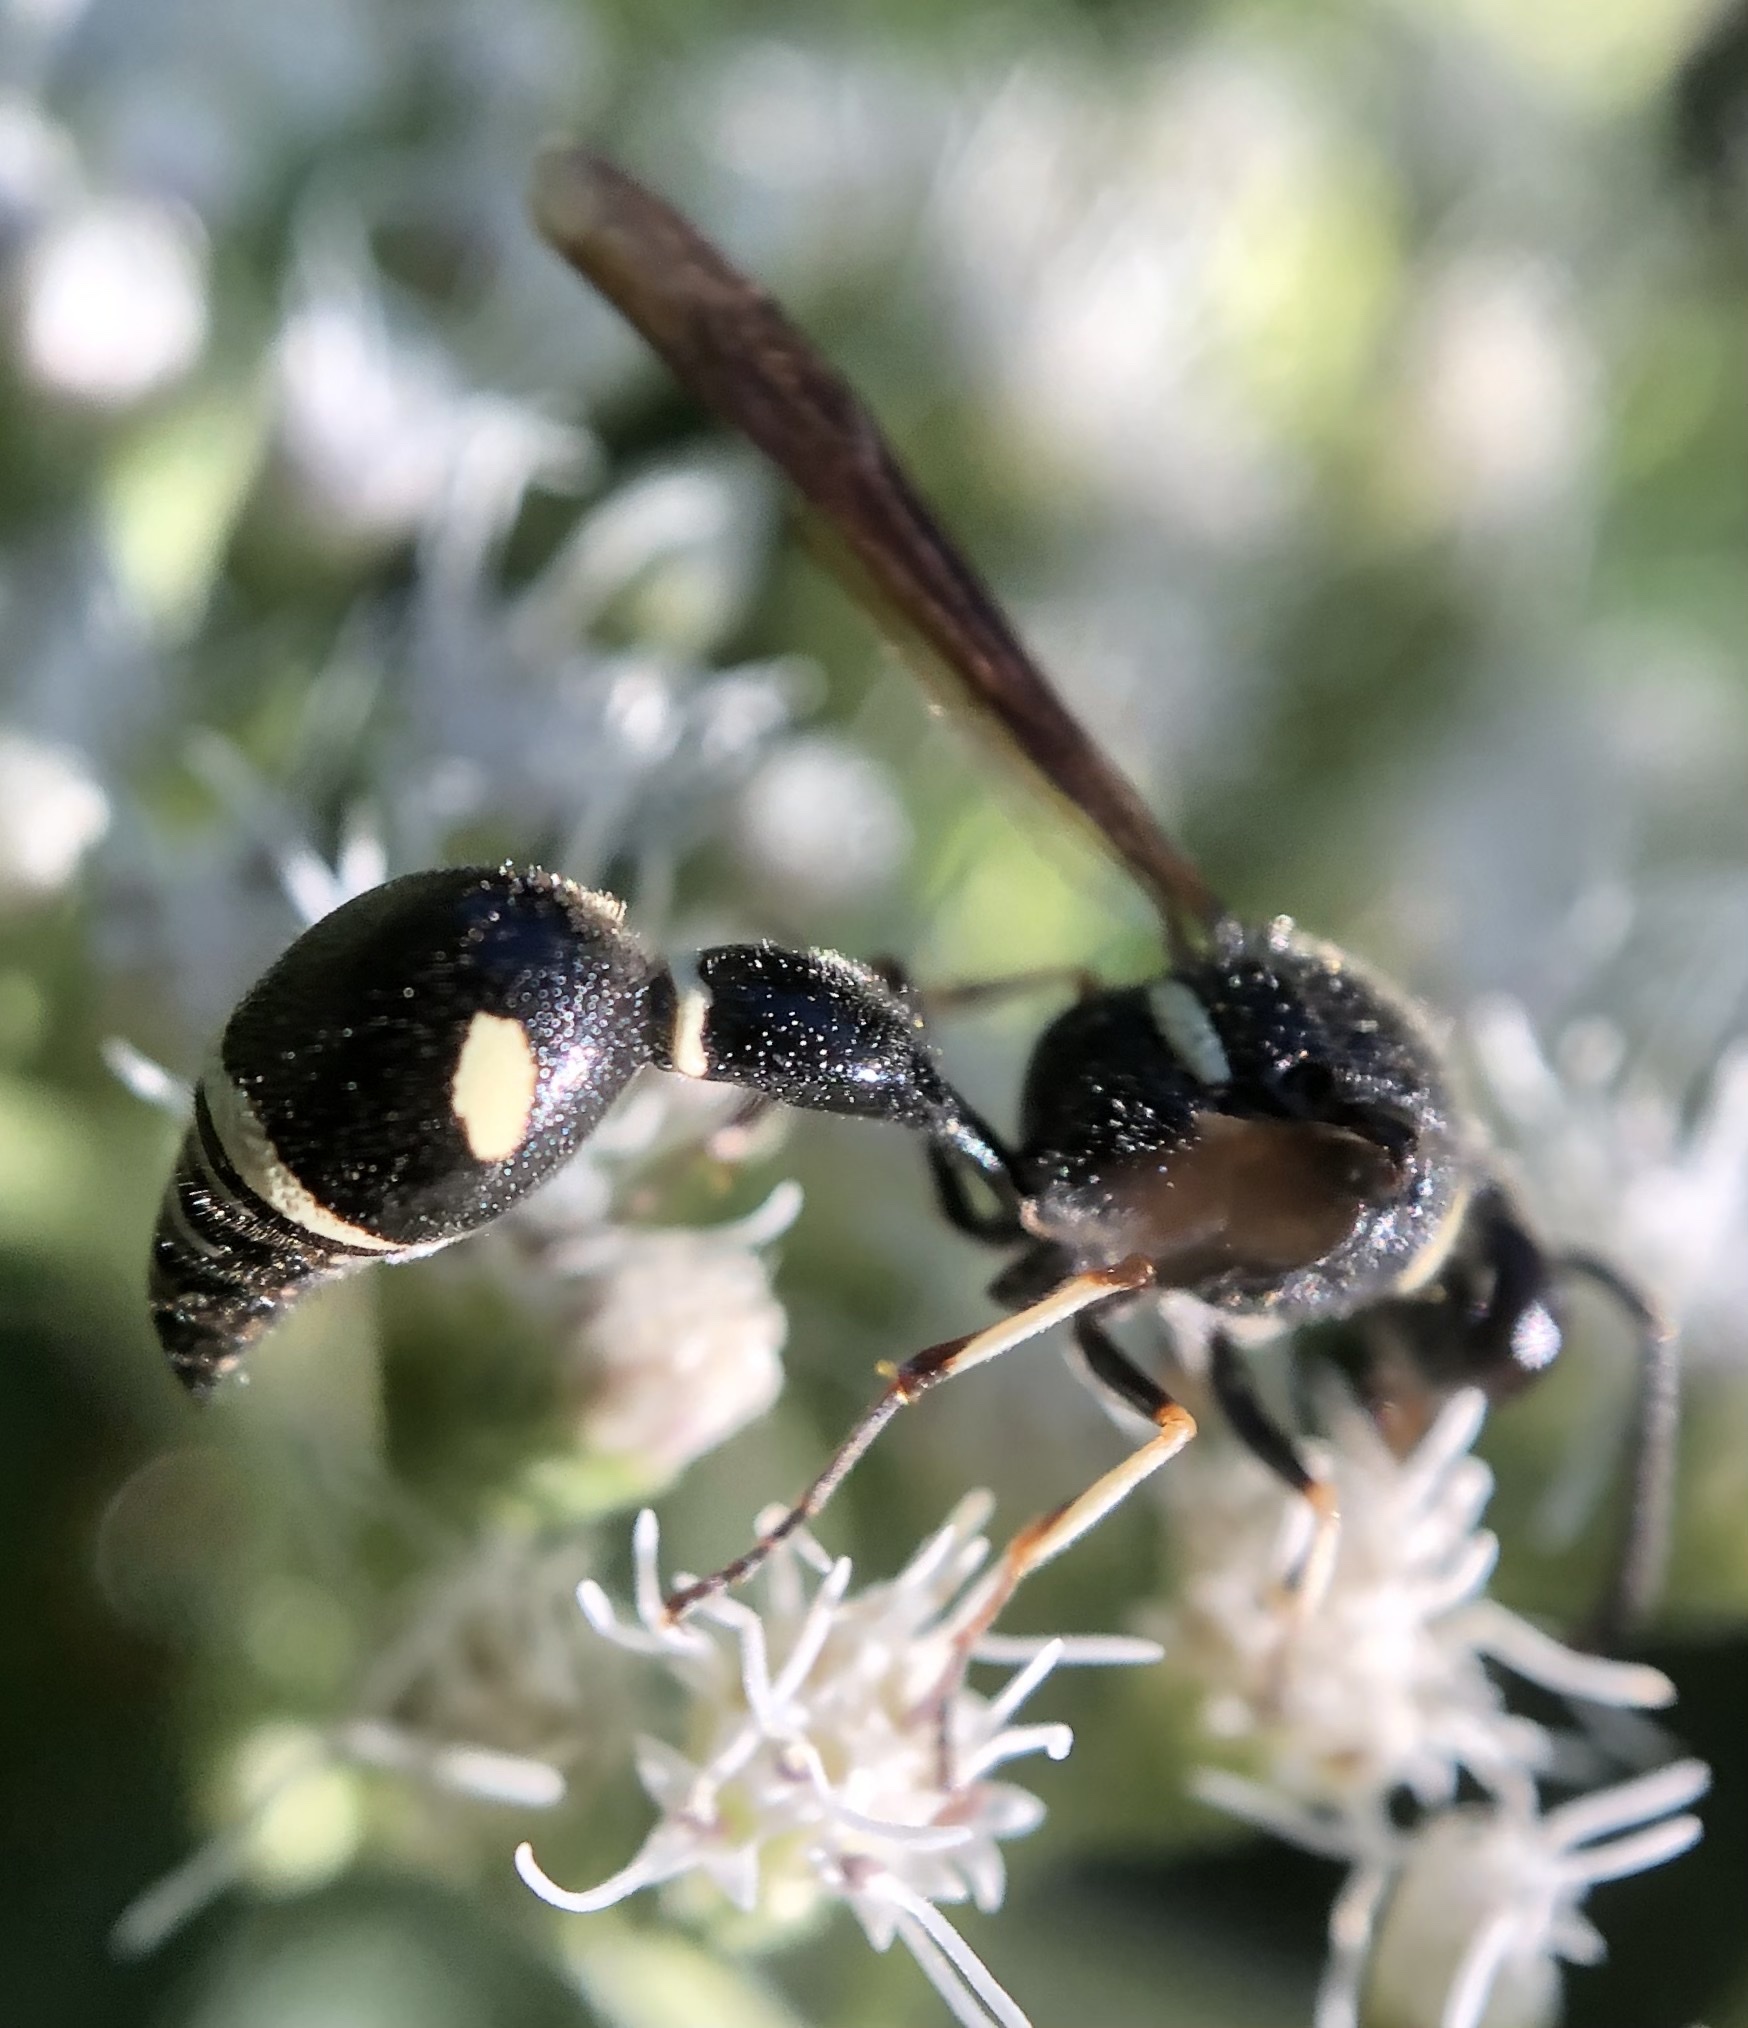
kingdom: Animalia
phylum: Arthropoda
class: Insecta
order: Hymenoptera
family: Vespidae
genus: Eumenes
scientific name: Eumenes fraternus
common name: Fraternal potter wasp
